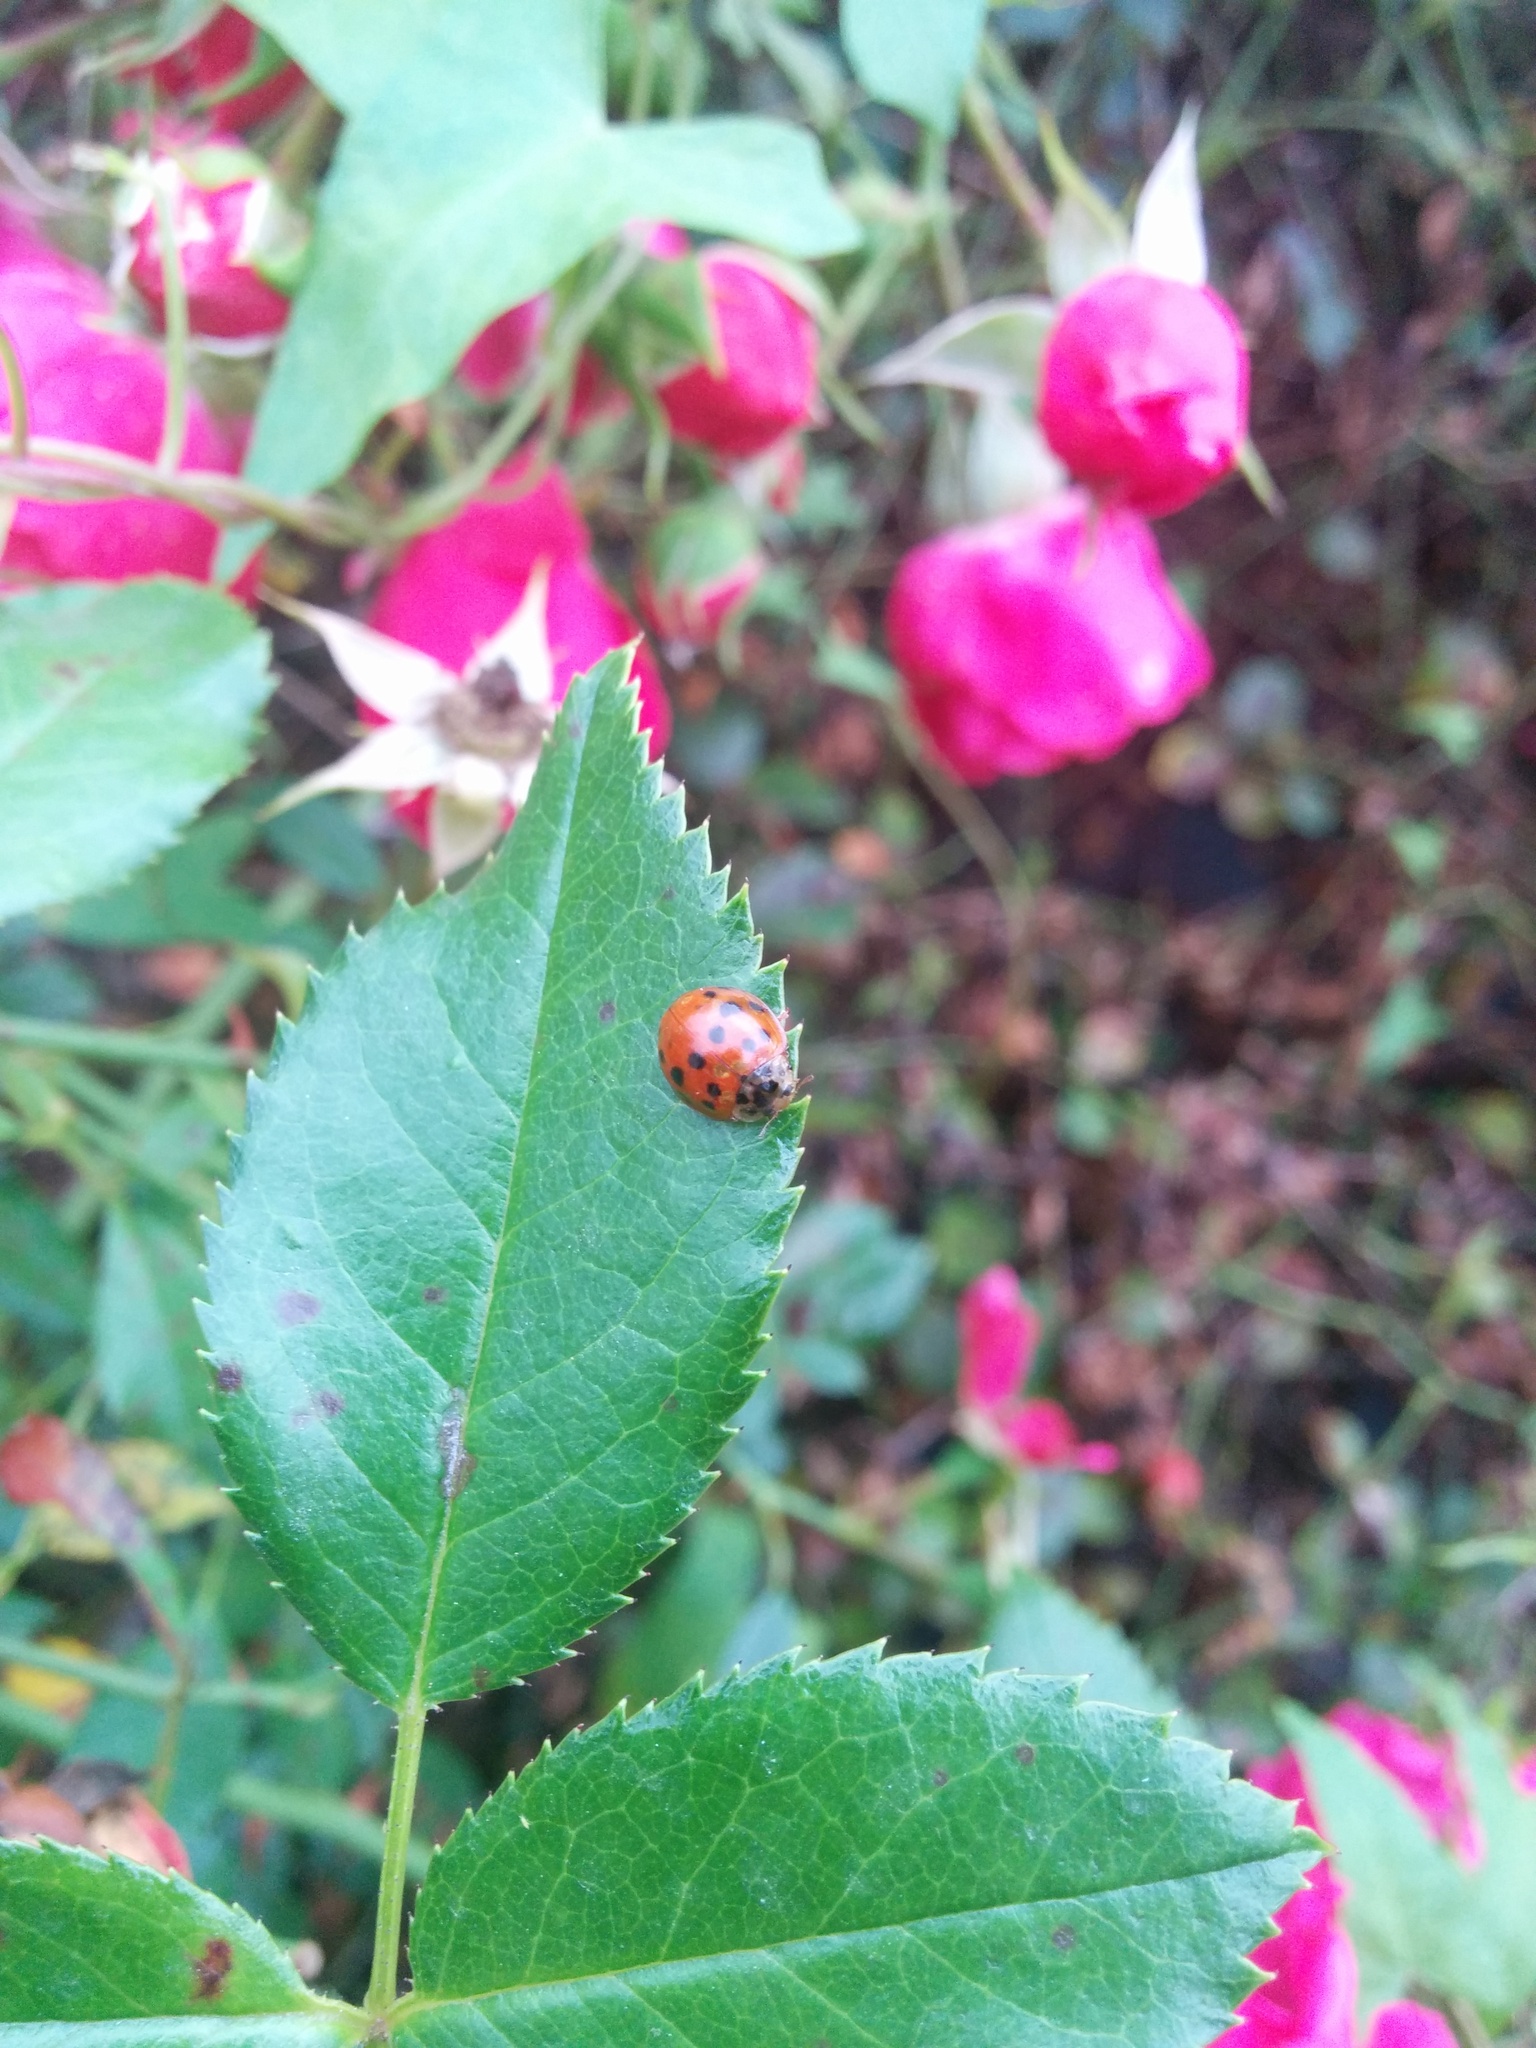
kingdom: Animalia
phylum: Arthropoda
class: Insecta
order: Coleoptera
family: Coccinellidae
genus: Harmonia
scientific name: Harmonia axyridis
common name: Harlequin ladybird
